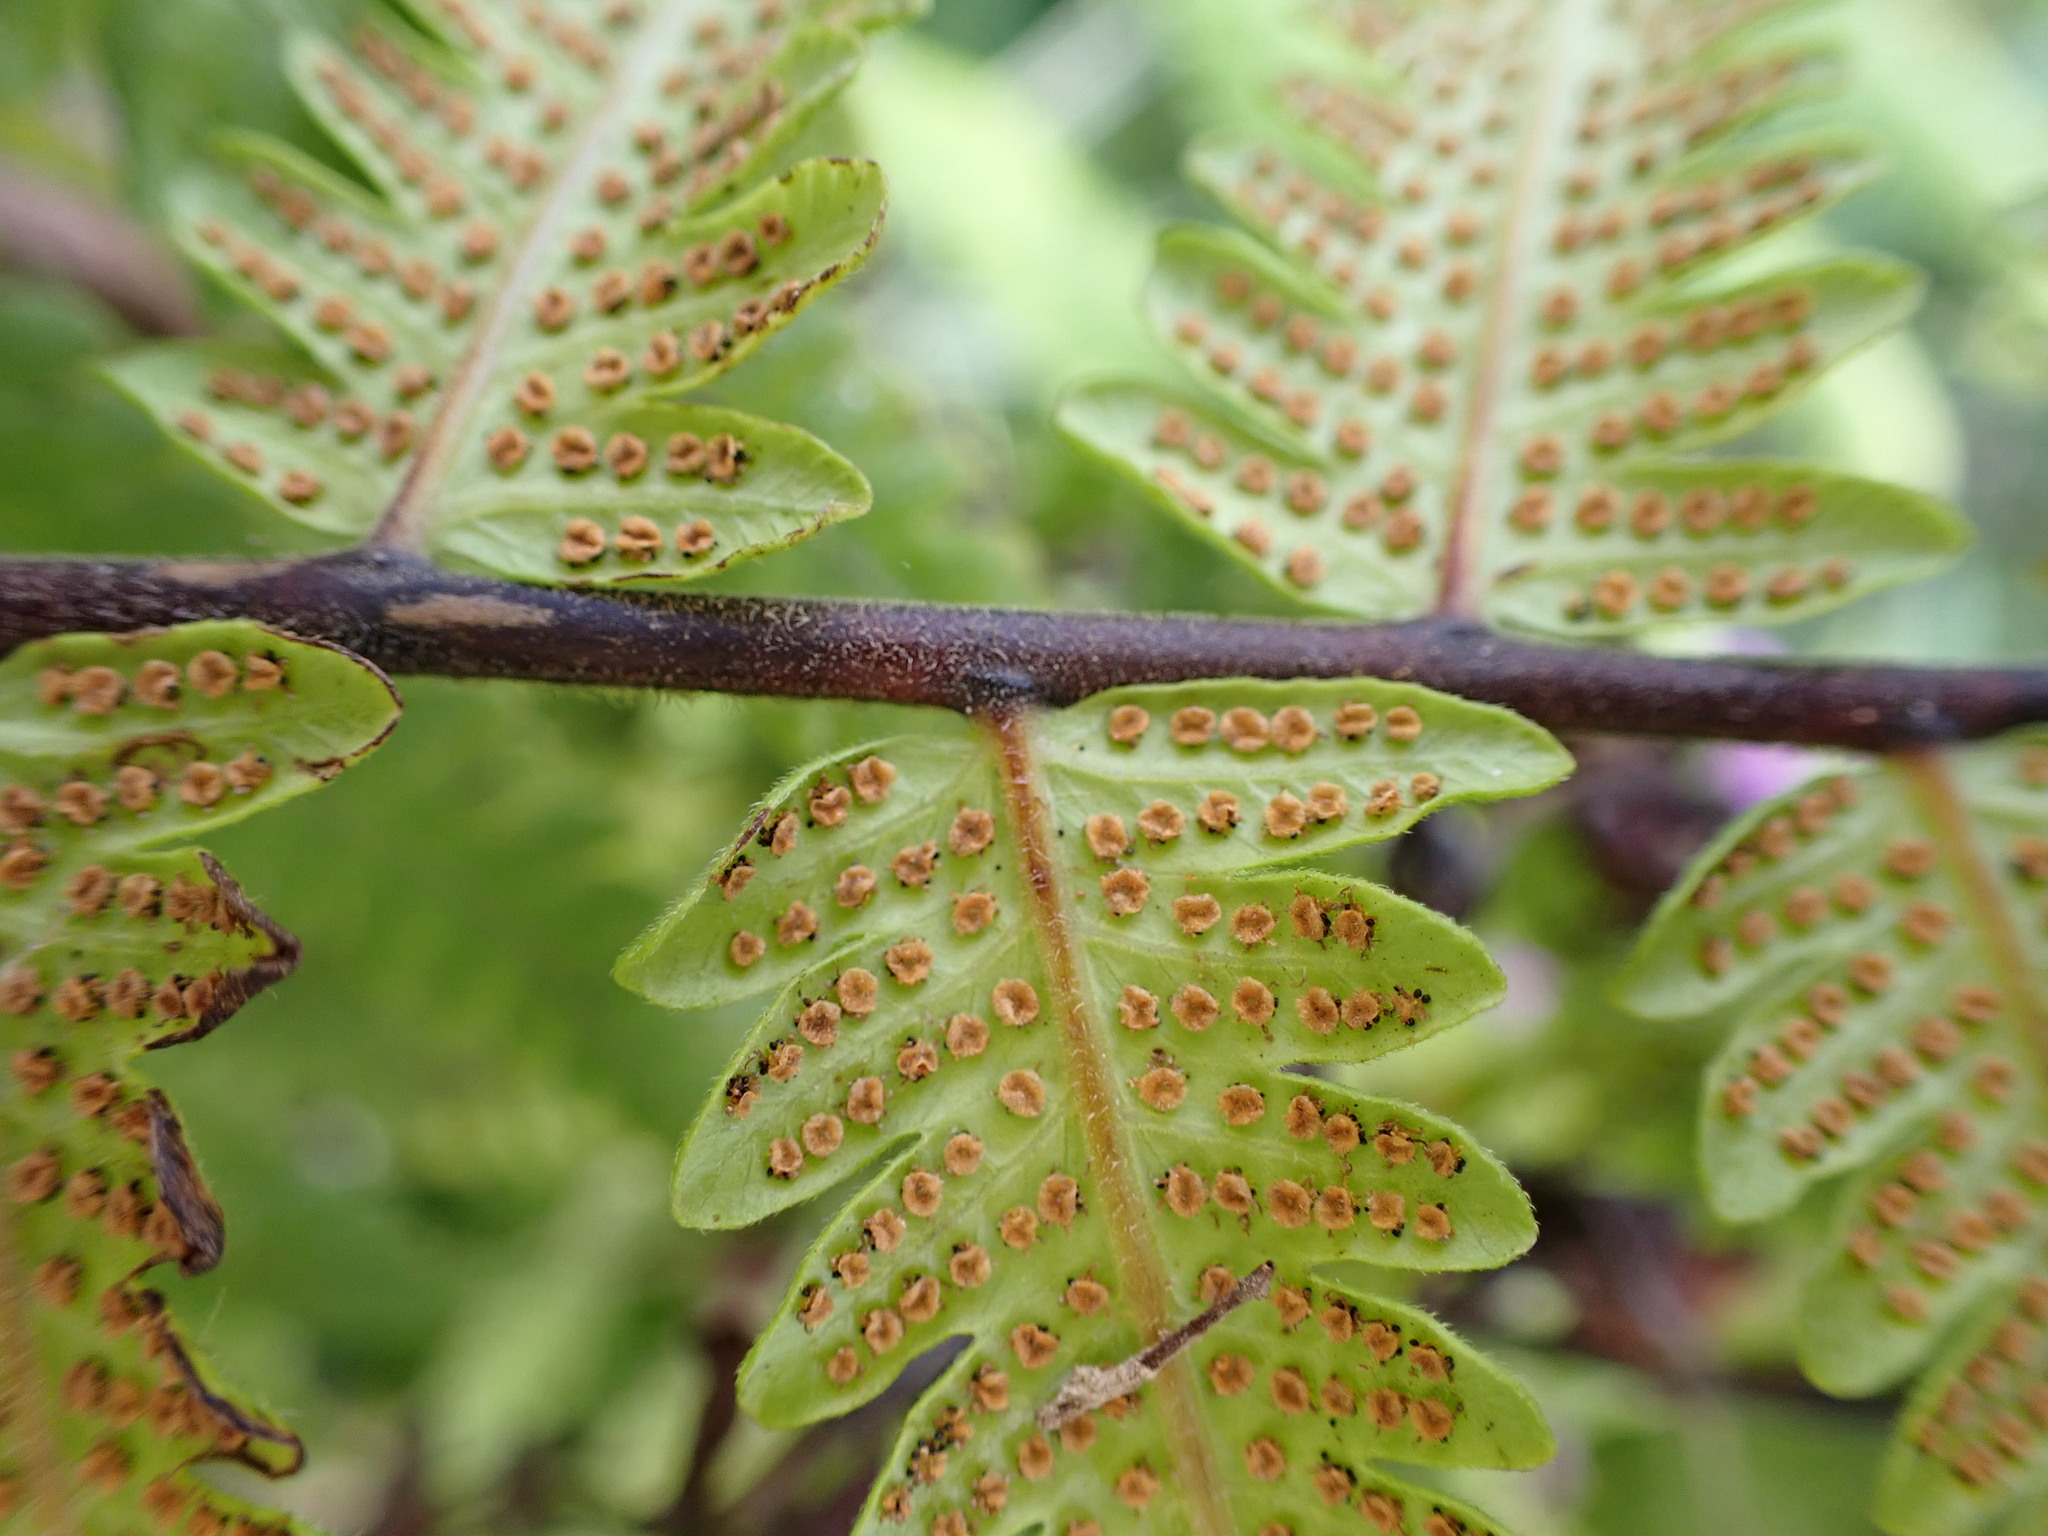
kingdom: Plantae
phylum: Tracheophyta
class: Polypodiopsida
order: Polypodiales
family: Thelypteridaceae
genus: Christella
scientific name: Christella dentata
